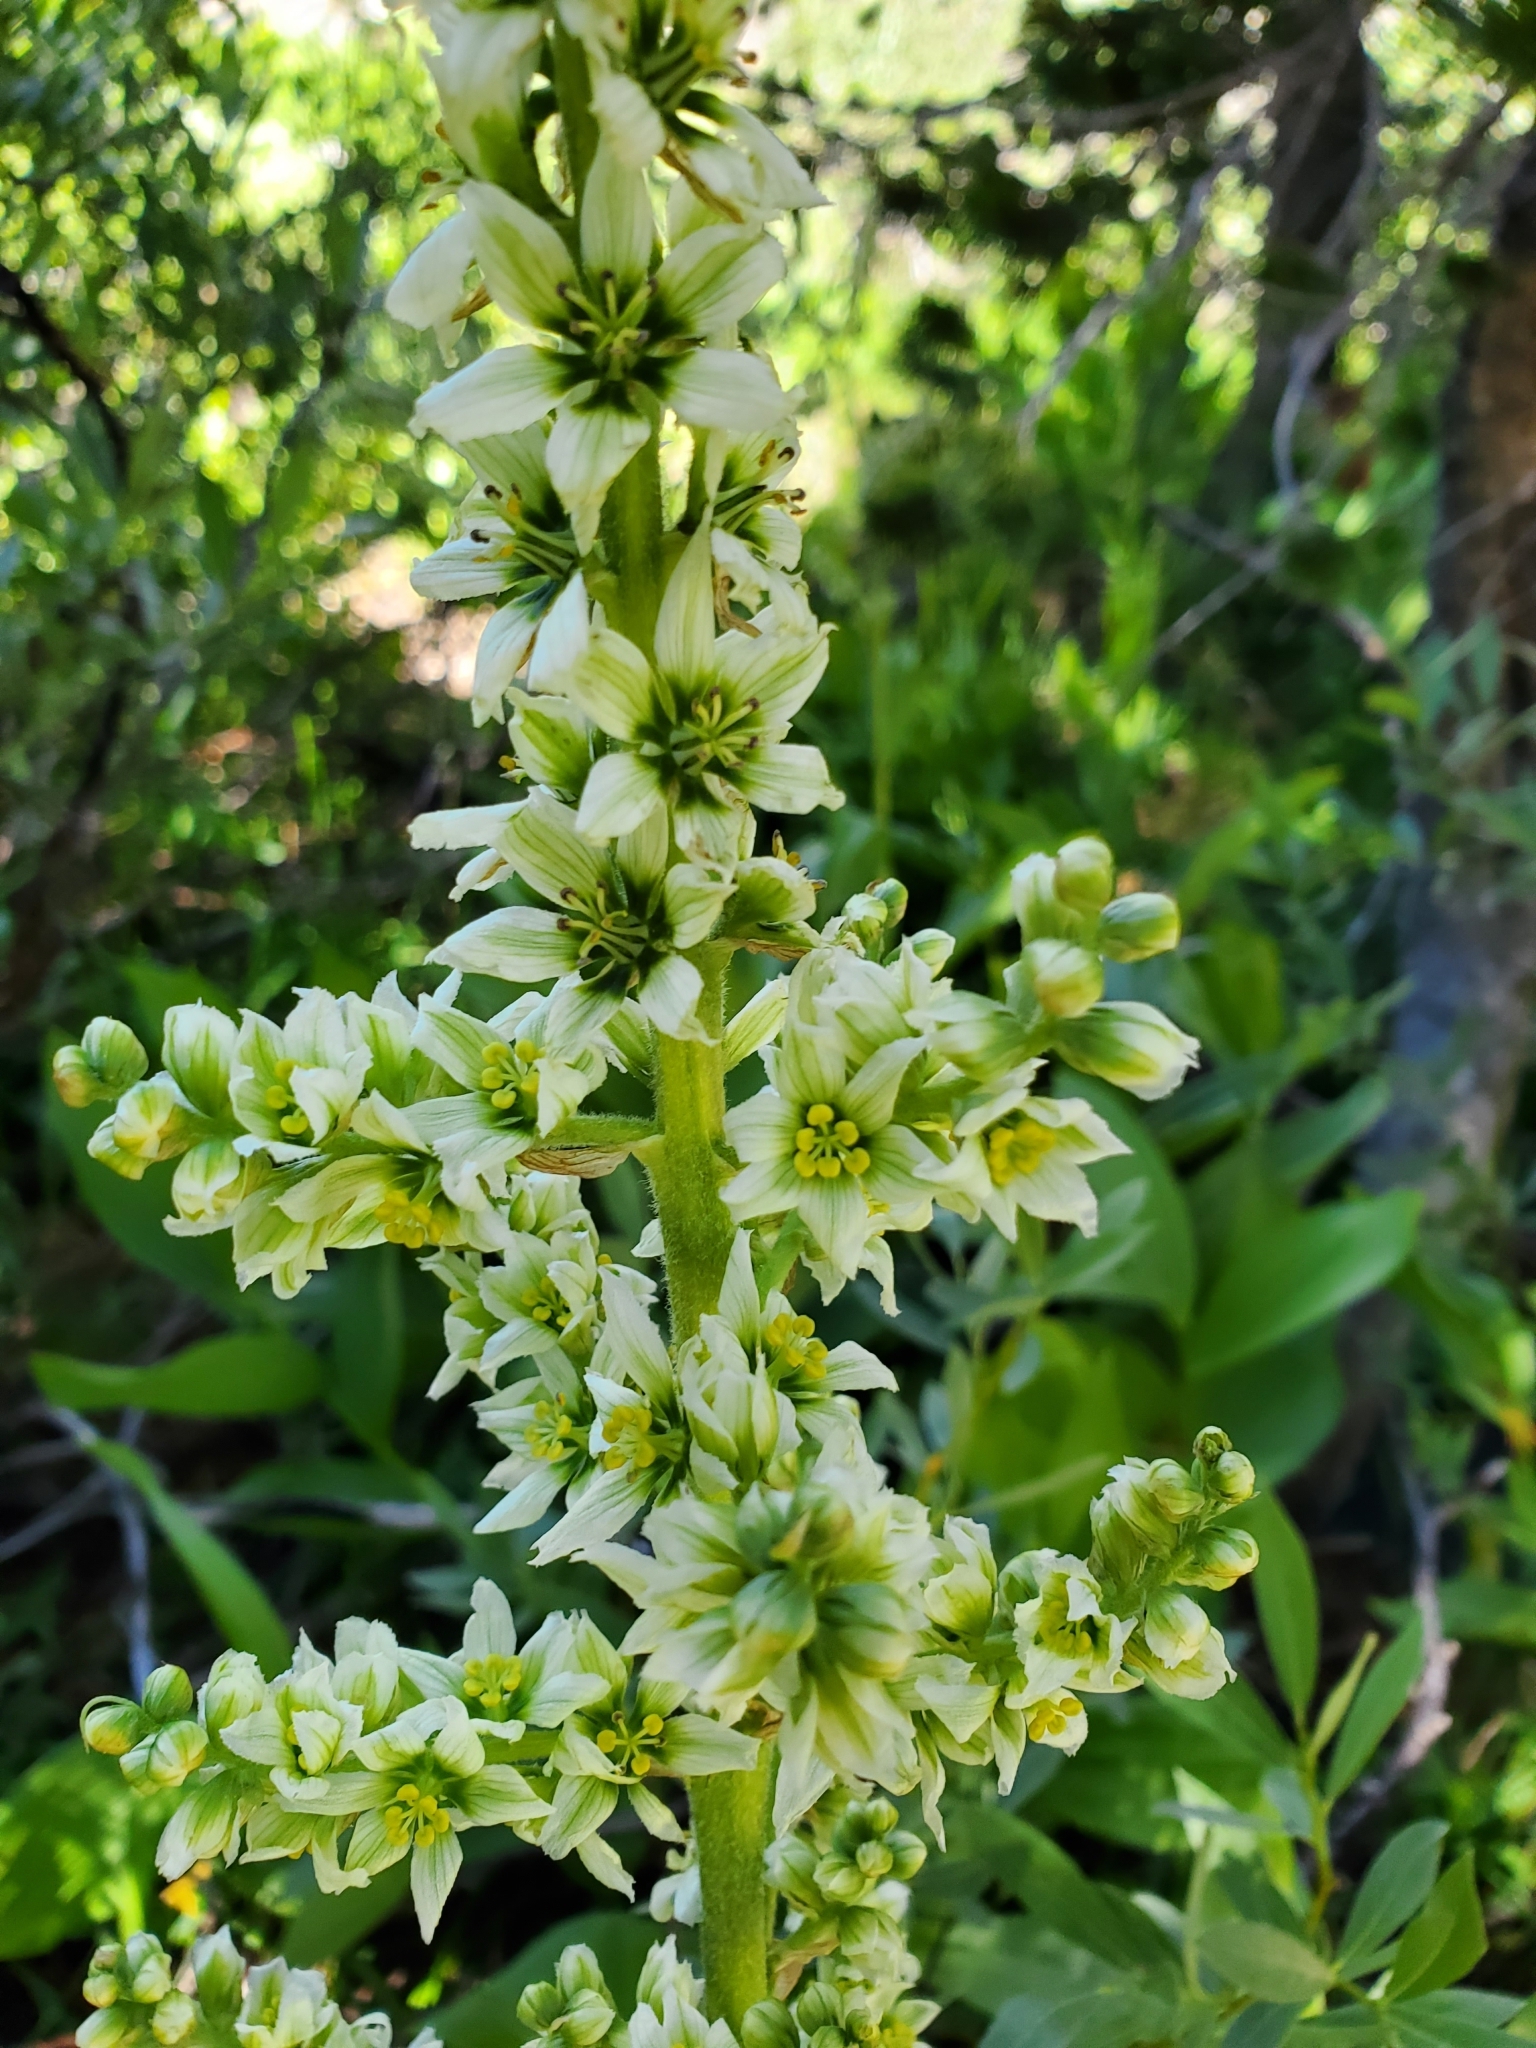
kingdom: Plantae
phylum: Tracheophyta
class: Liliopsida
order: Liliales
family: Melanthiaceae
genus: Veratrum
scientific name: Veratrum californicum
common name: California veratrum
